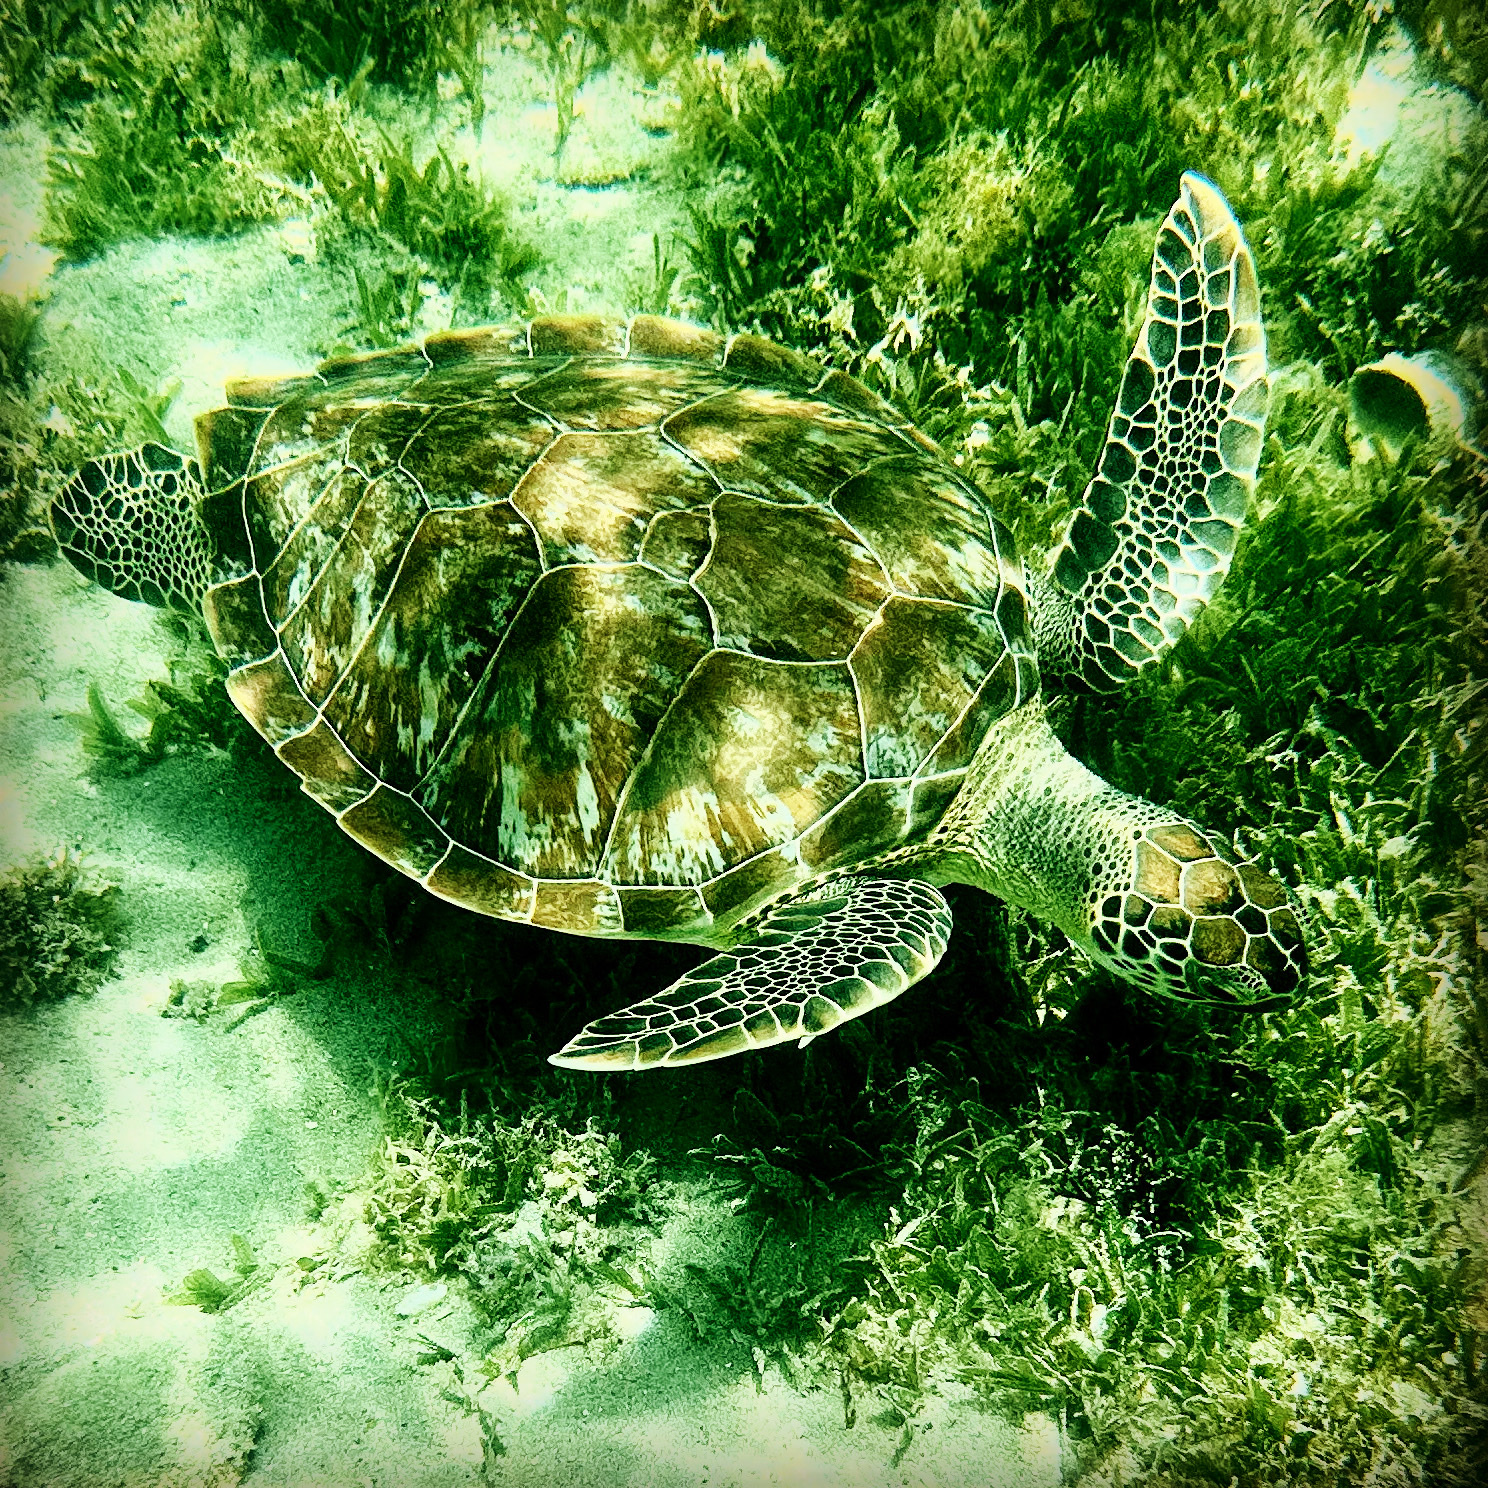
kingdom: Animalia
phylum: Chordata
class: Testudines
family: Cheloniidae
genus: Chelonia
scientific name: Chelonia mydas
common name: Green turtle
